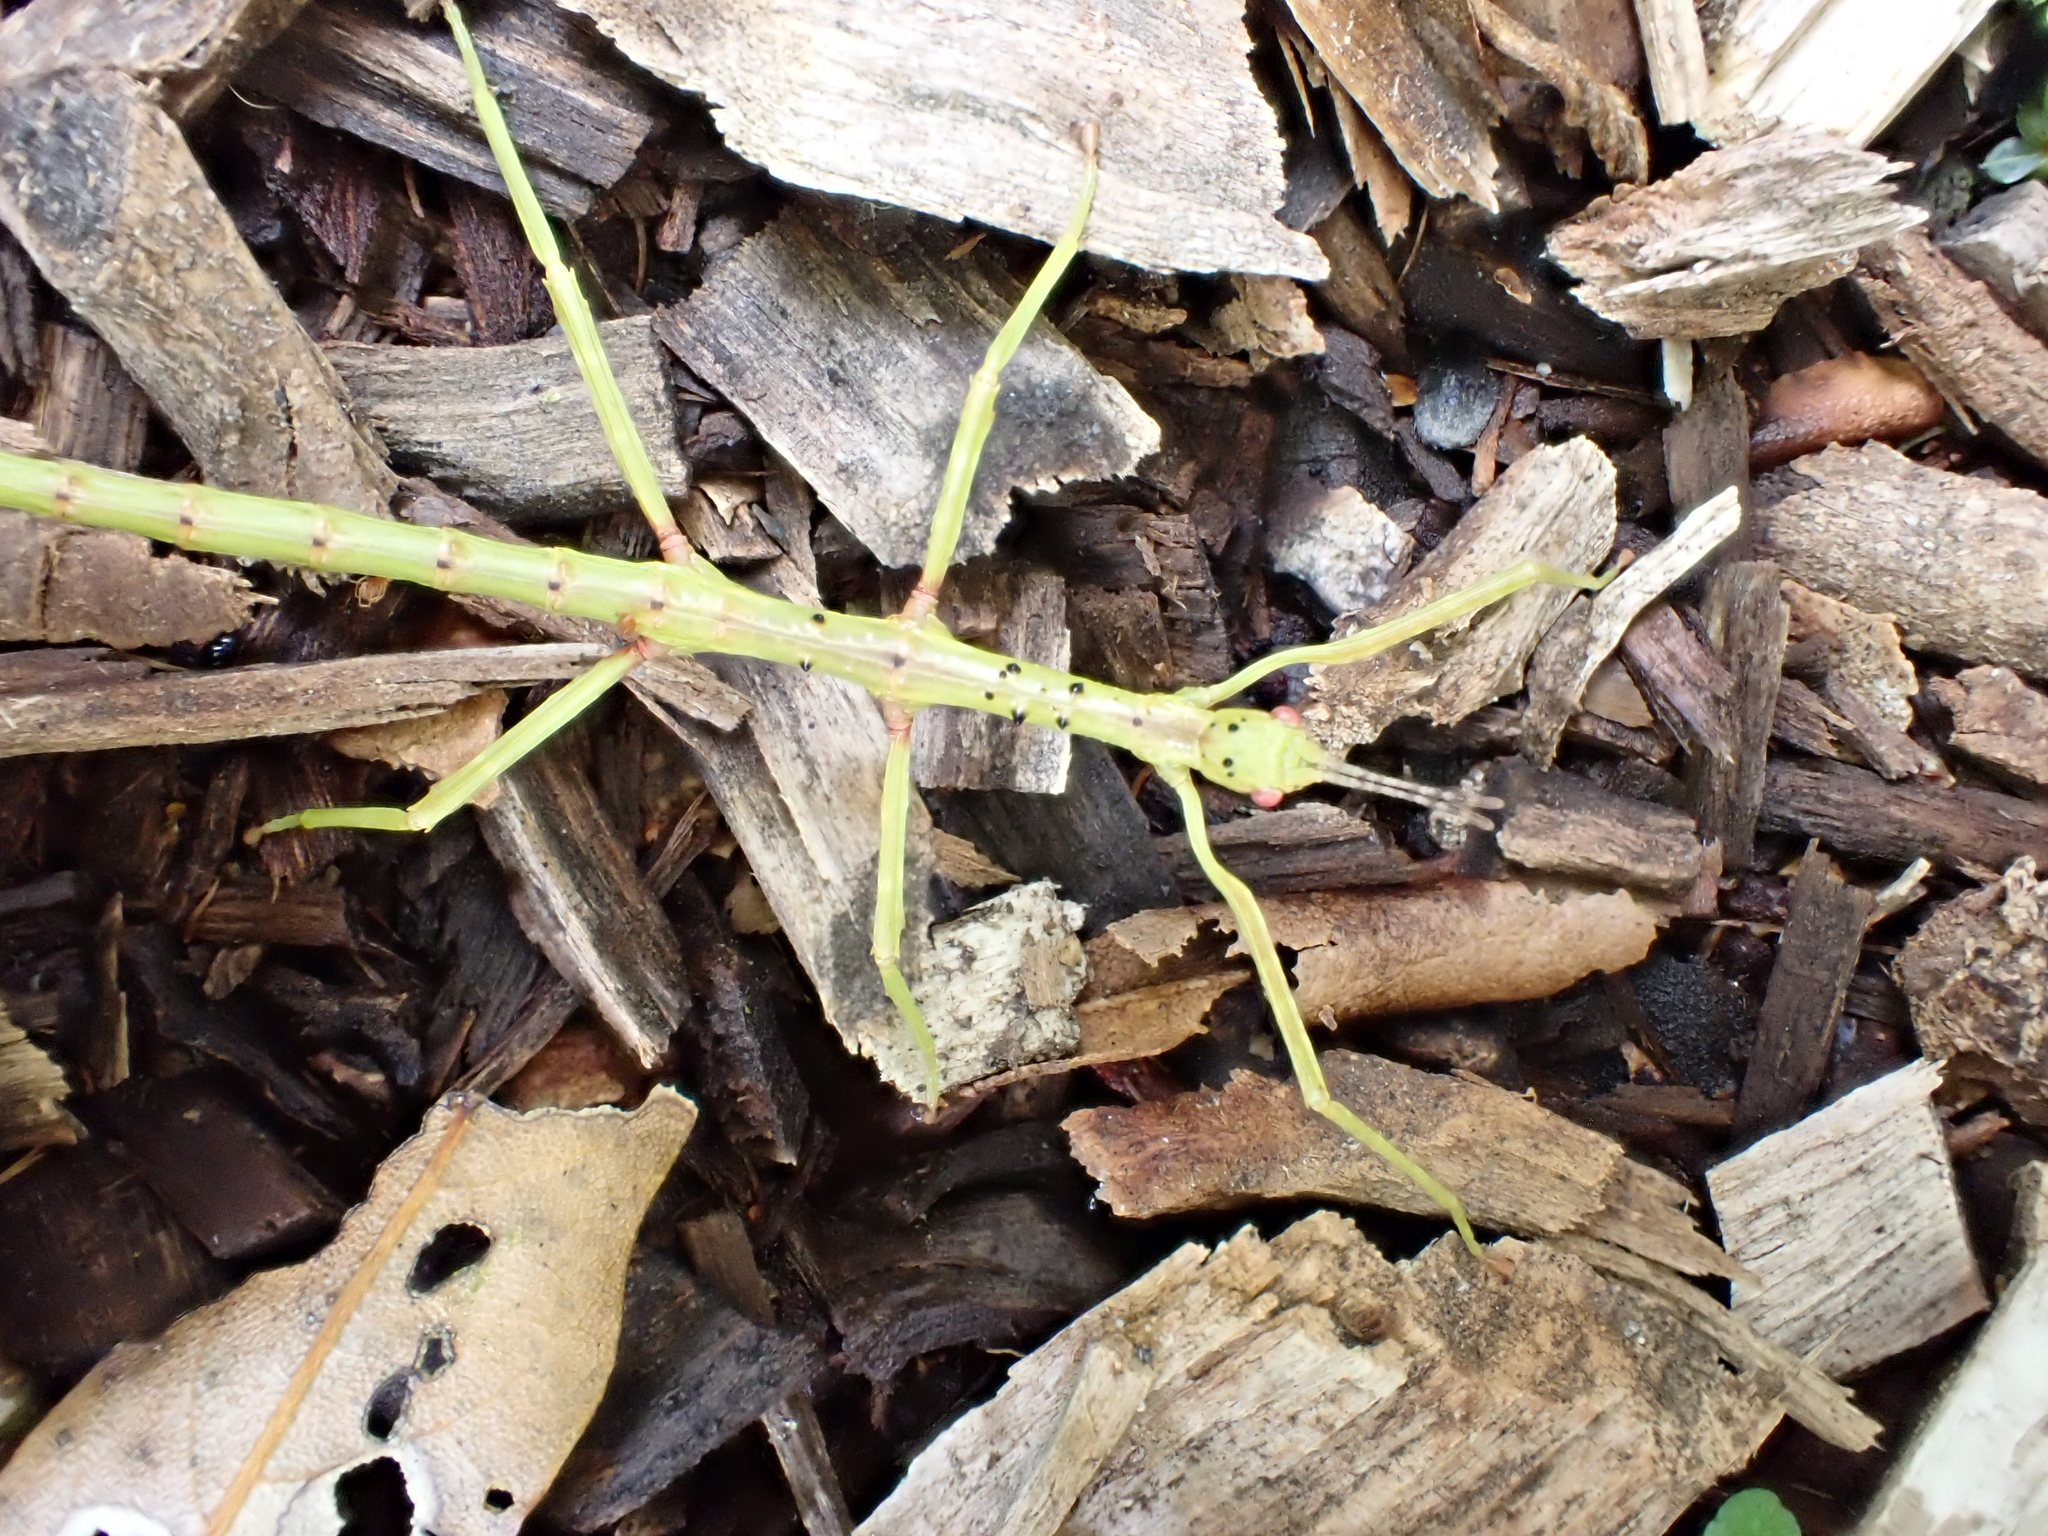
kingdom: Animalia
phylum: Arthropoda
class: Insecta
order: Phasmida
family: Phasmatidae
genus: Acanthoxyla
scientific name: Acanthoxyla prasina
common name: Black-spined stick insect
